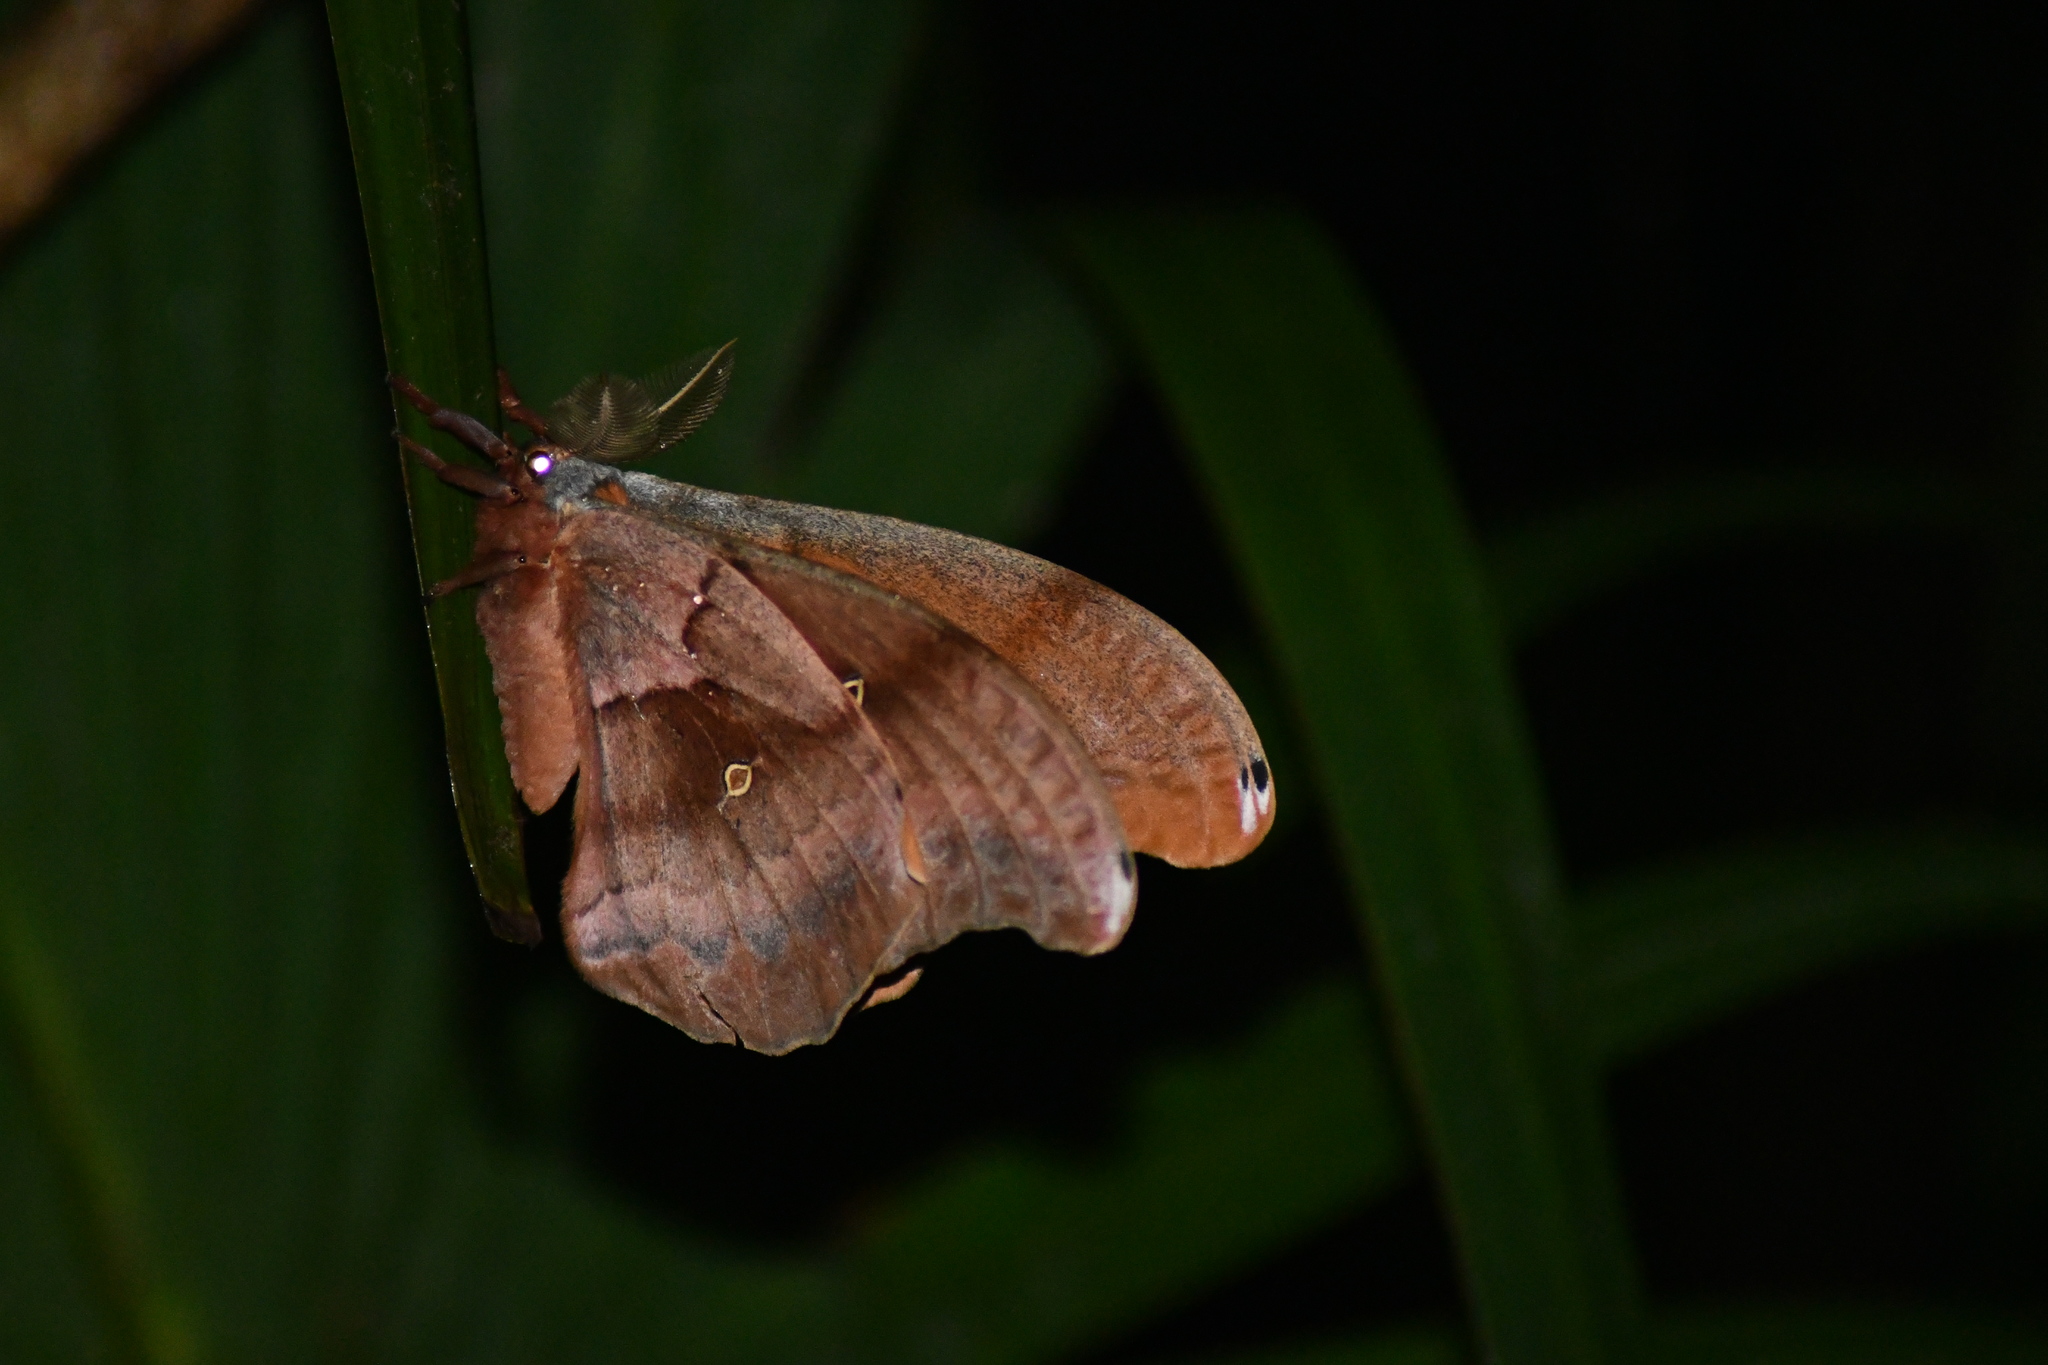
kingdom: Animalia
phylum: Arthropoda
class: Insecta
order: Lepidoptera
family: Saturniidae
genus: Antheraea
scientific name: Antheraea polyphemus
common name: Polyphemus moth
